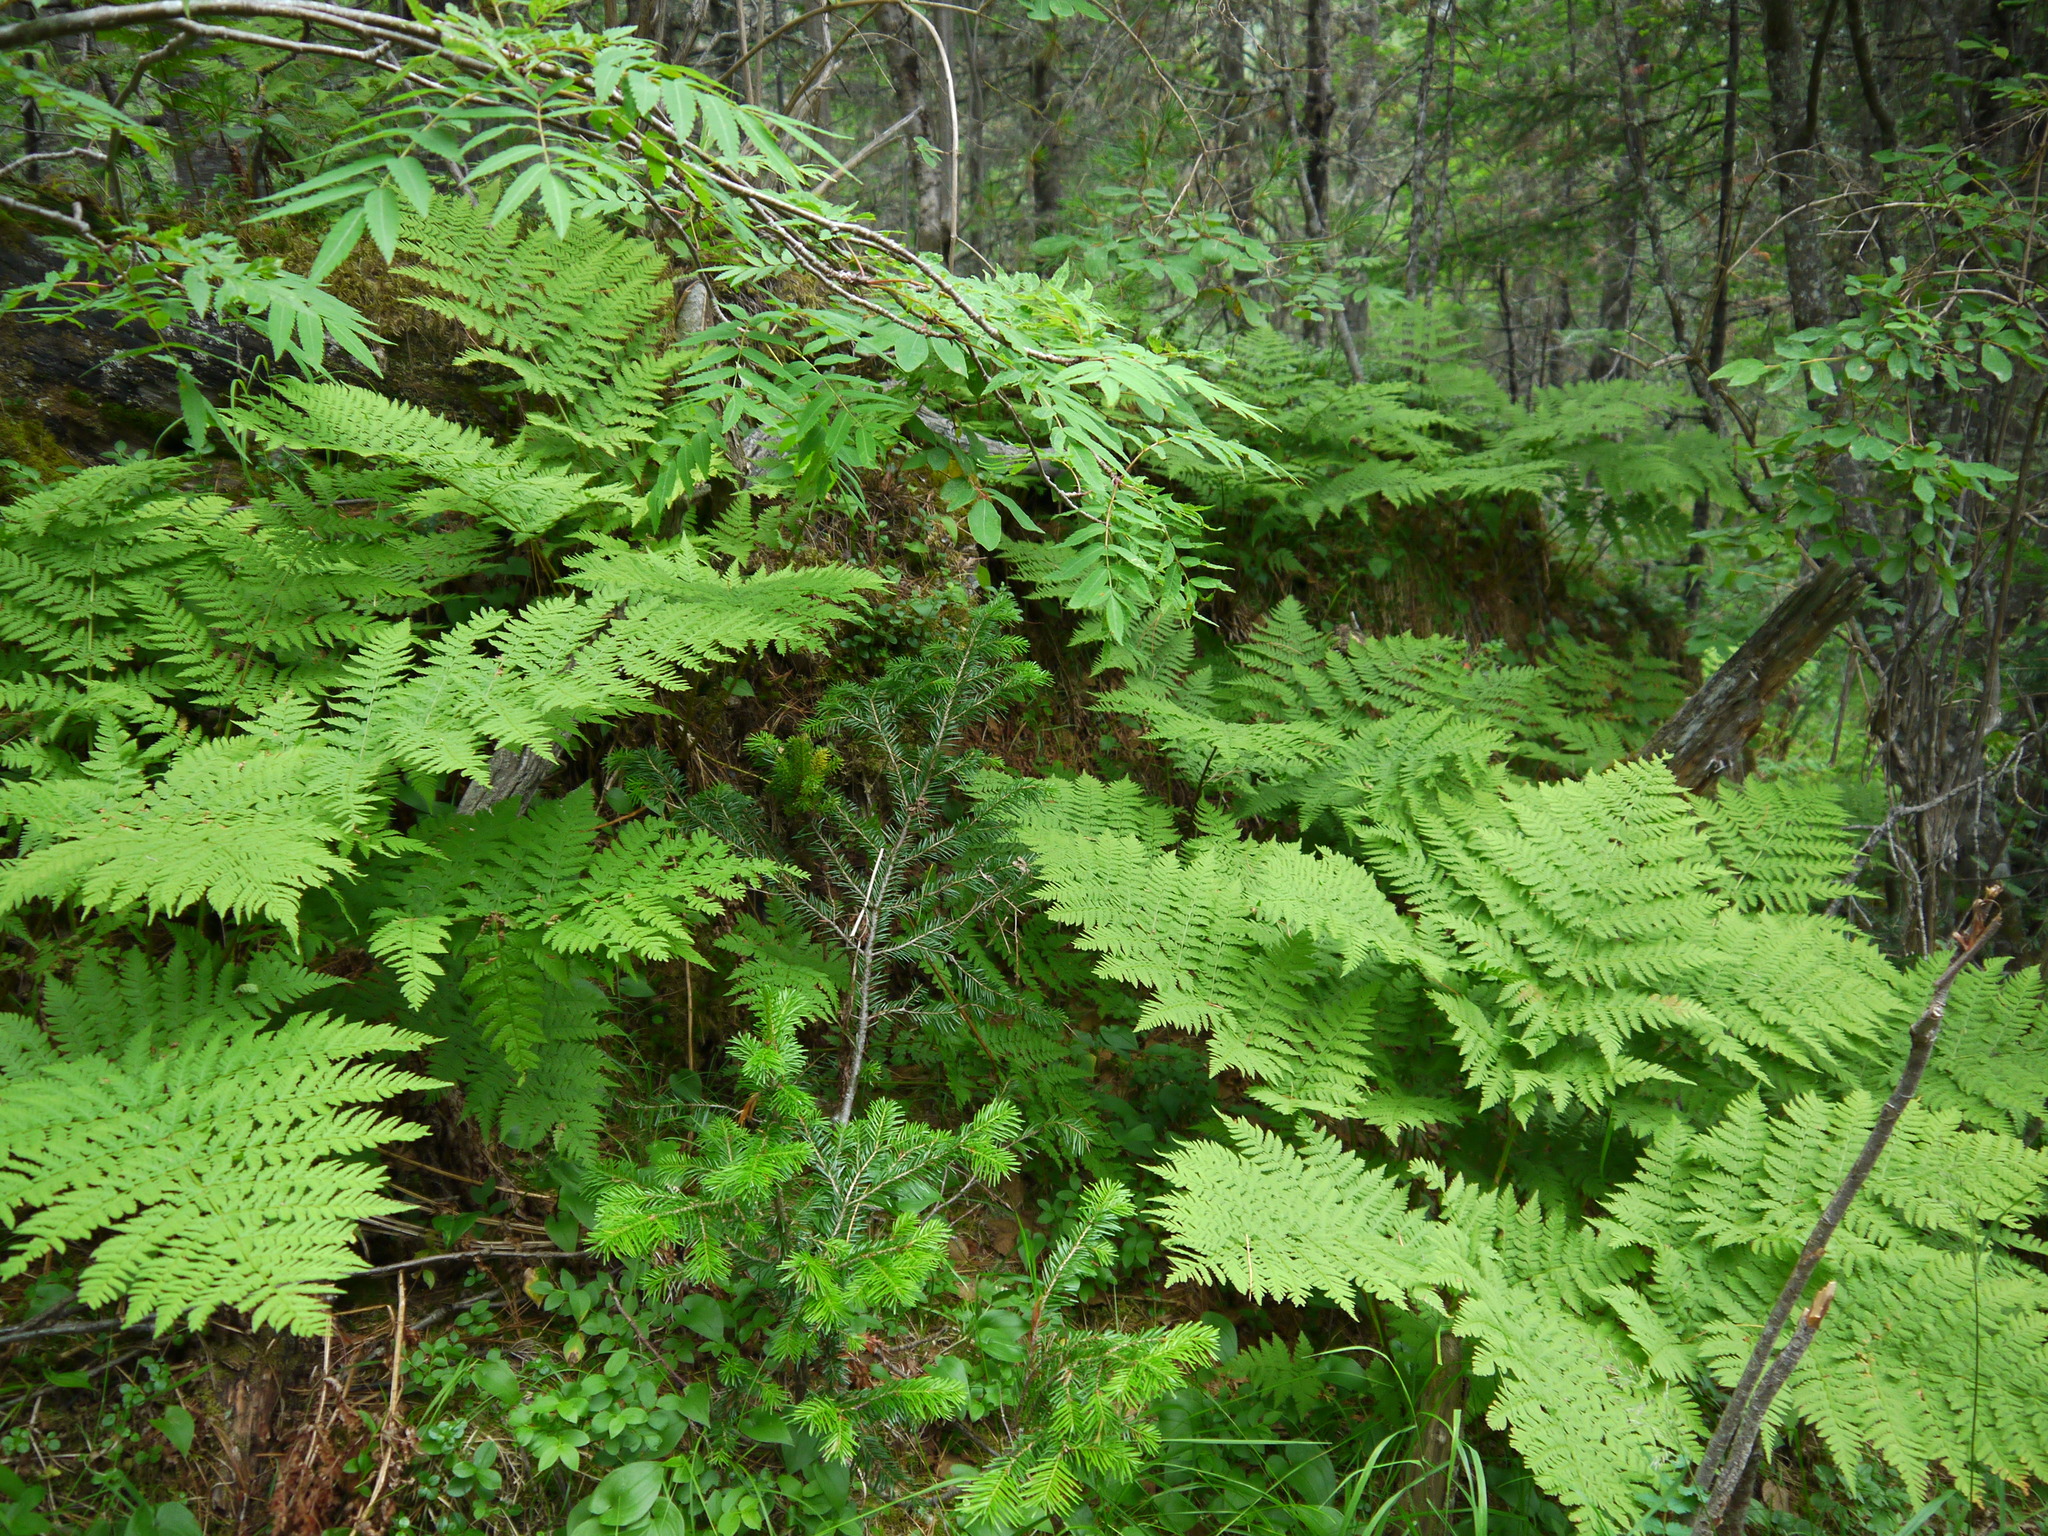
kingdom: Plantae
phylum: Tracheophyta
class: Polypodiopsida
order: Polypodiales
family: Dryopteridaceae
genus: Dryopteris
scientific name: Dryopteris expansa
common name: Northern buckler fern
